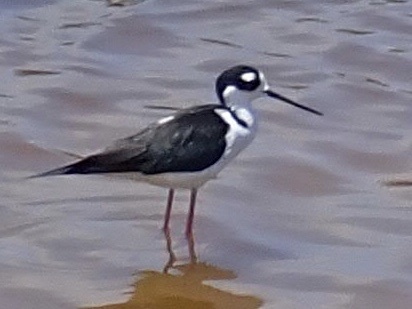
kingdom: Animalia
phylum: Chordata
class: Aves
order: Charadriiformes
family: Recurvirostridae
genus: Himantopus
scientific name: Himantopus mexicanus
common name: Black-necked stilt
